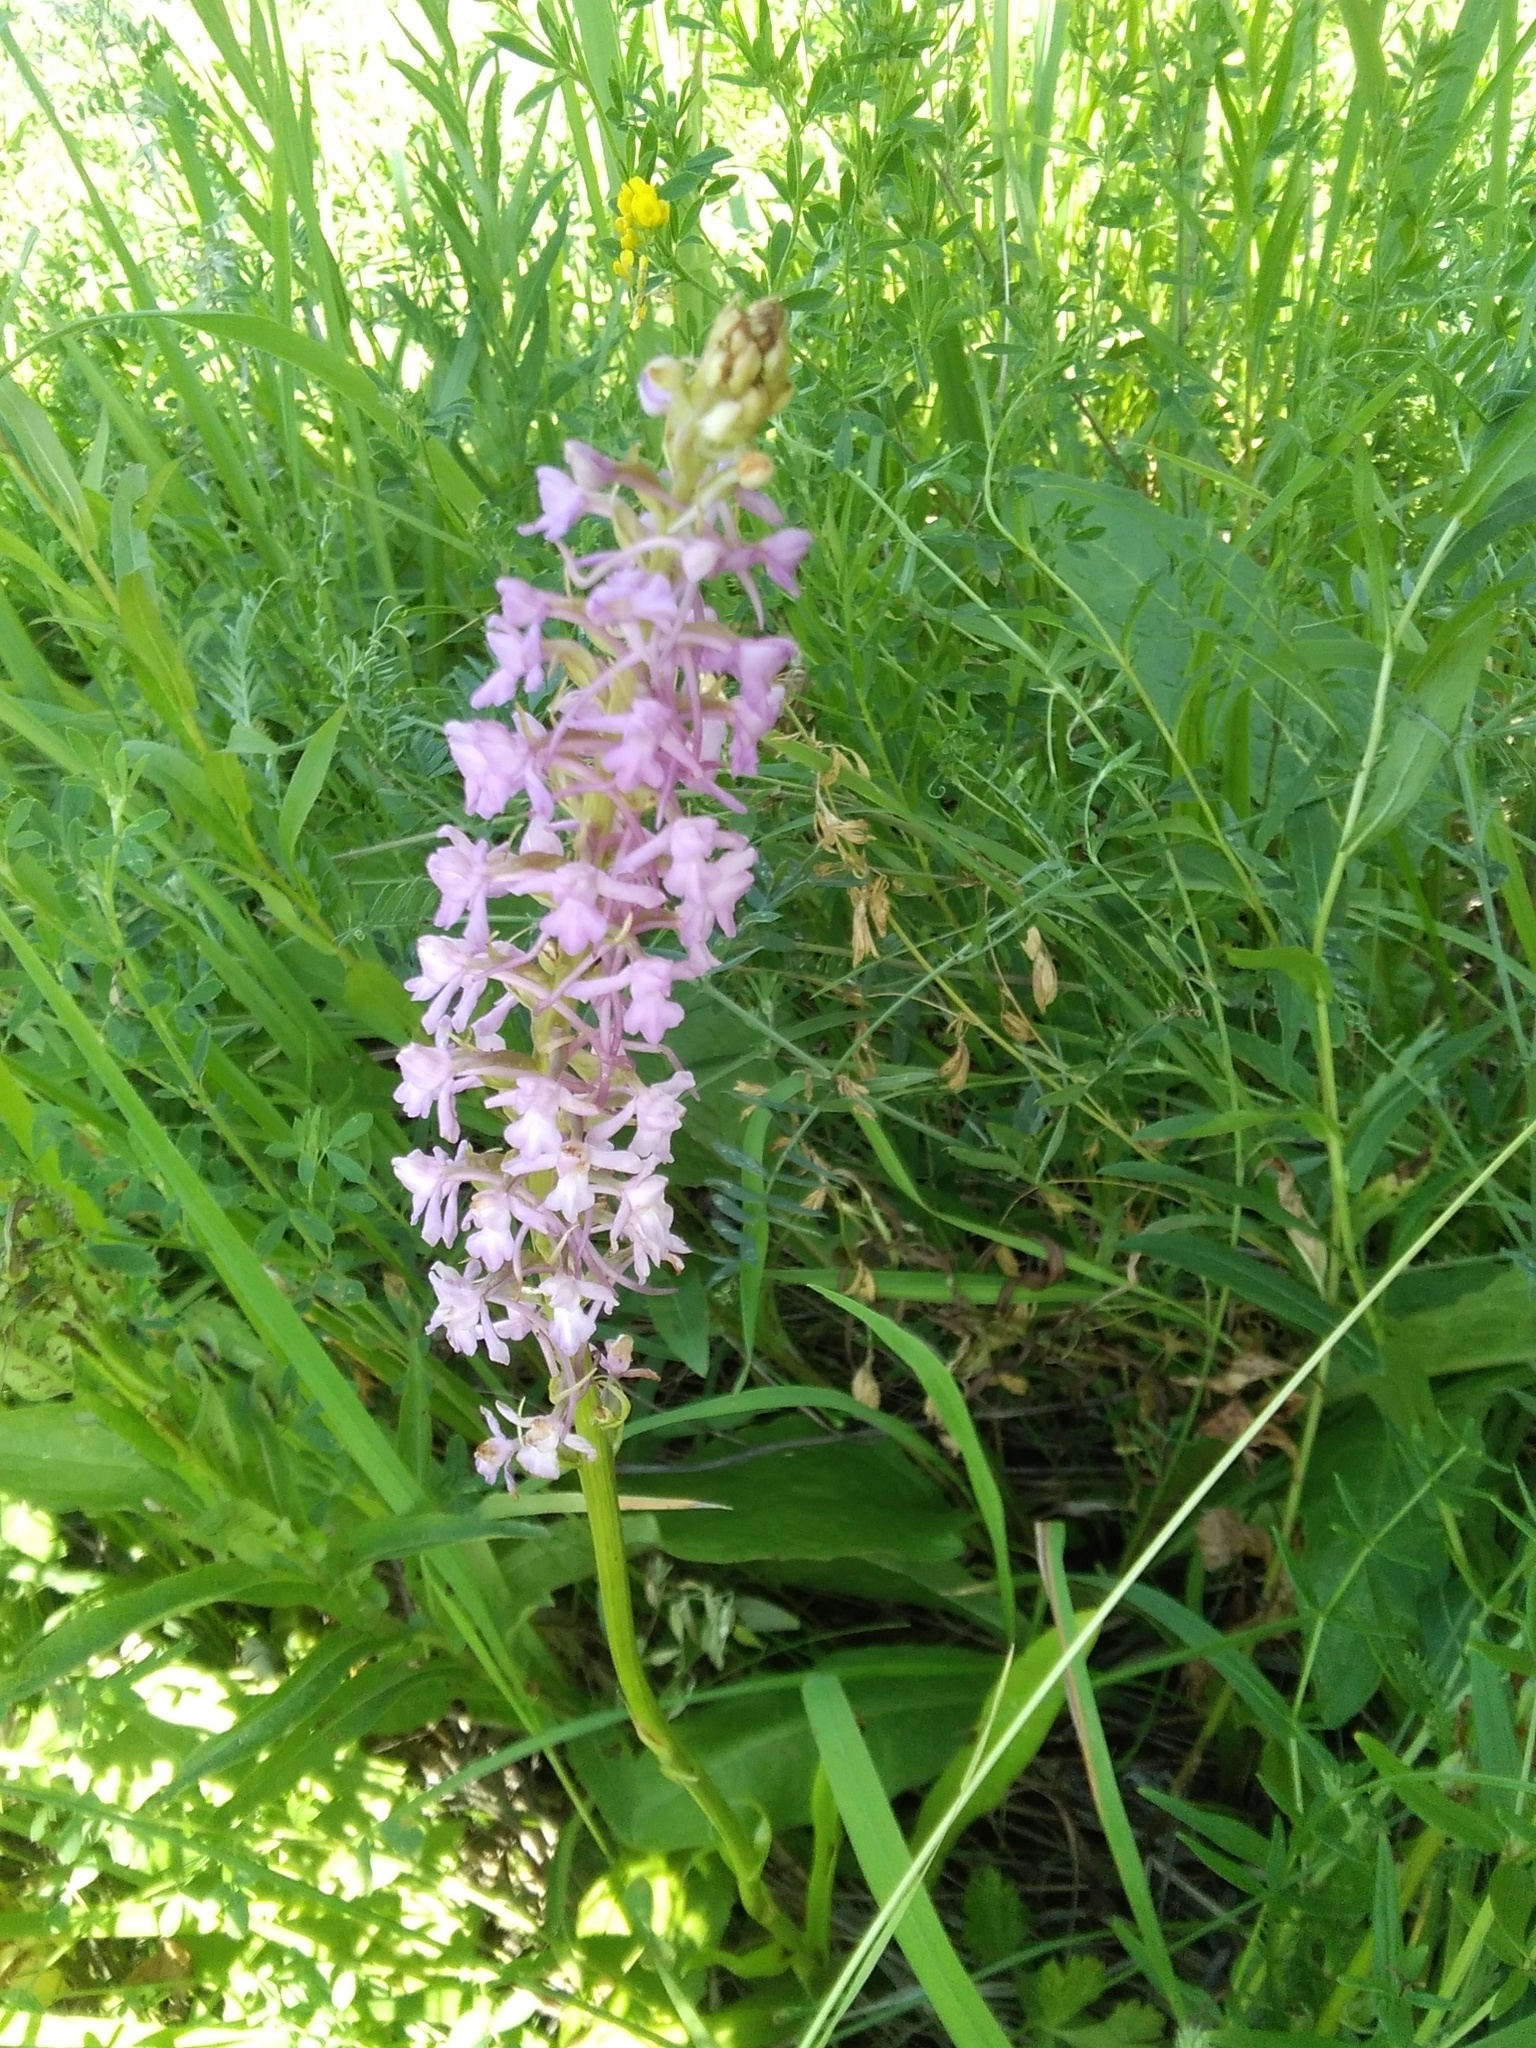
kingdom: Plantae
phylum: Tracheophyta
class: Liliopsida
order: Asparagales
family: Orchidaceae
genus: Gymnadenia
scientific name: Gymnadenia conopsea
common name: Fragrant orchid
